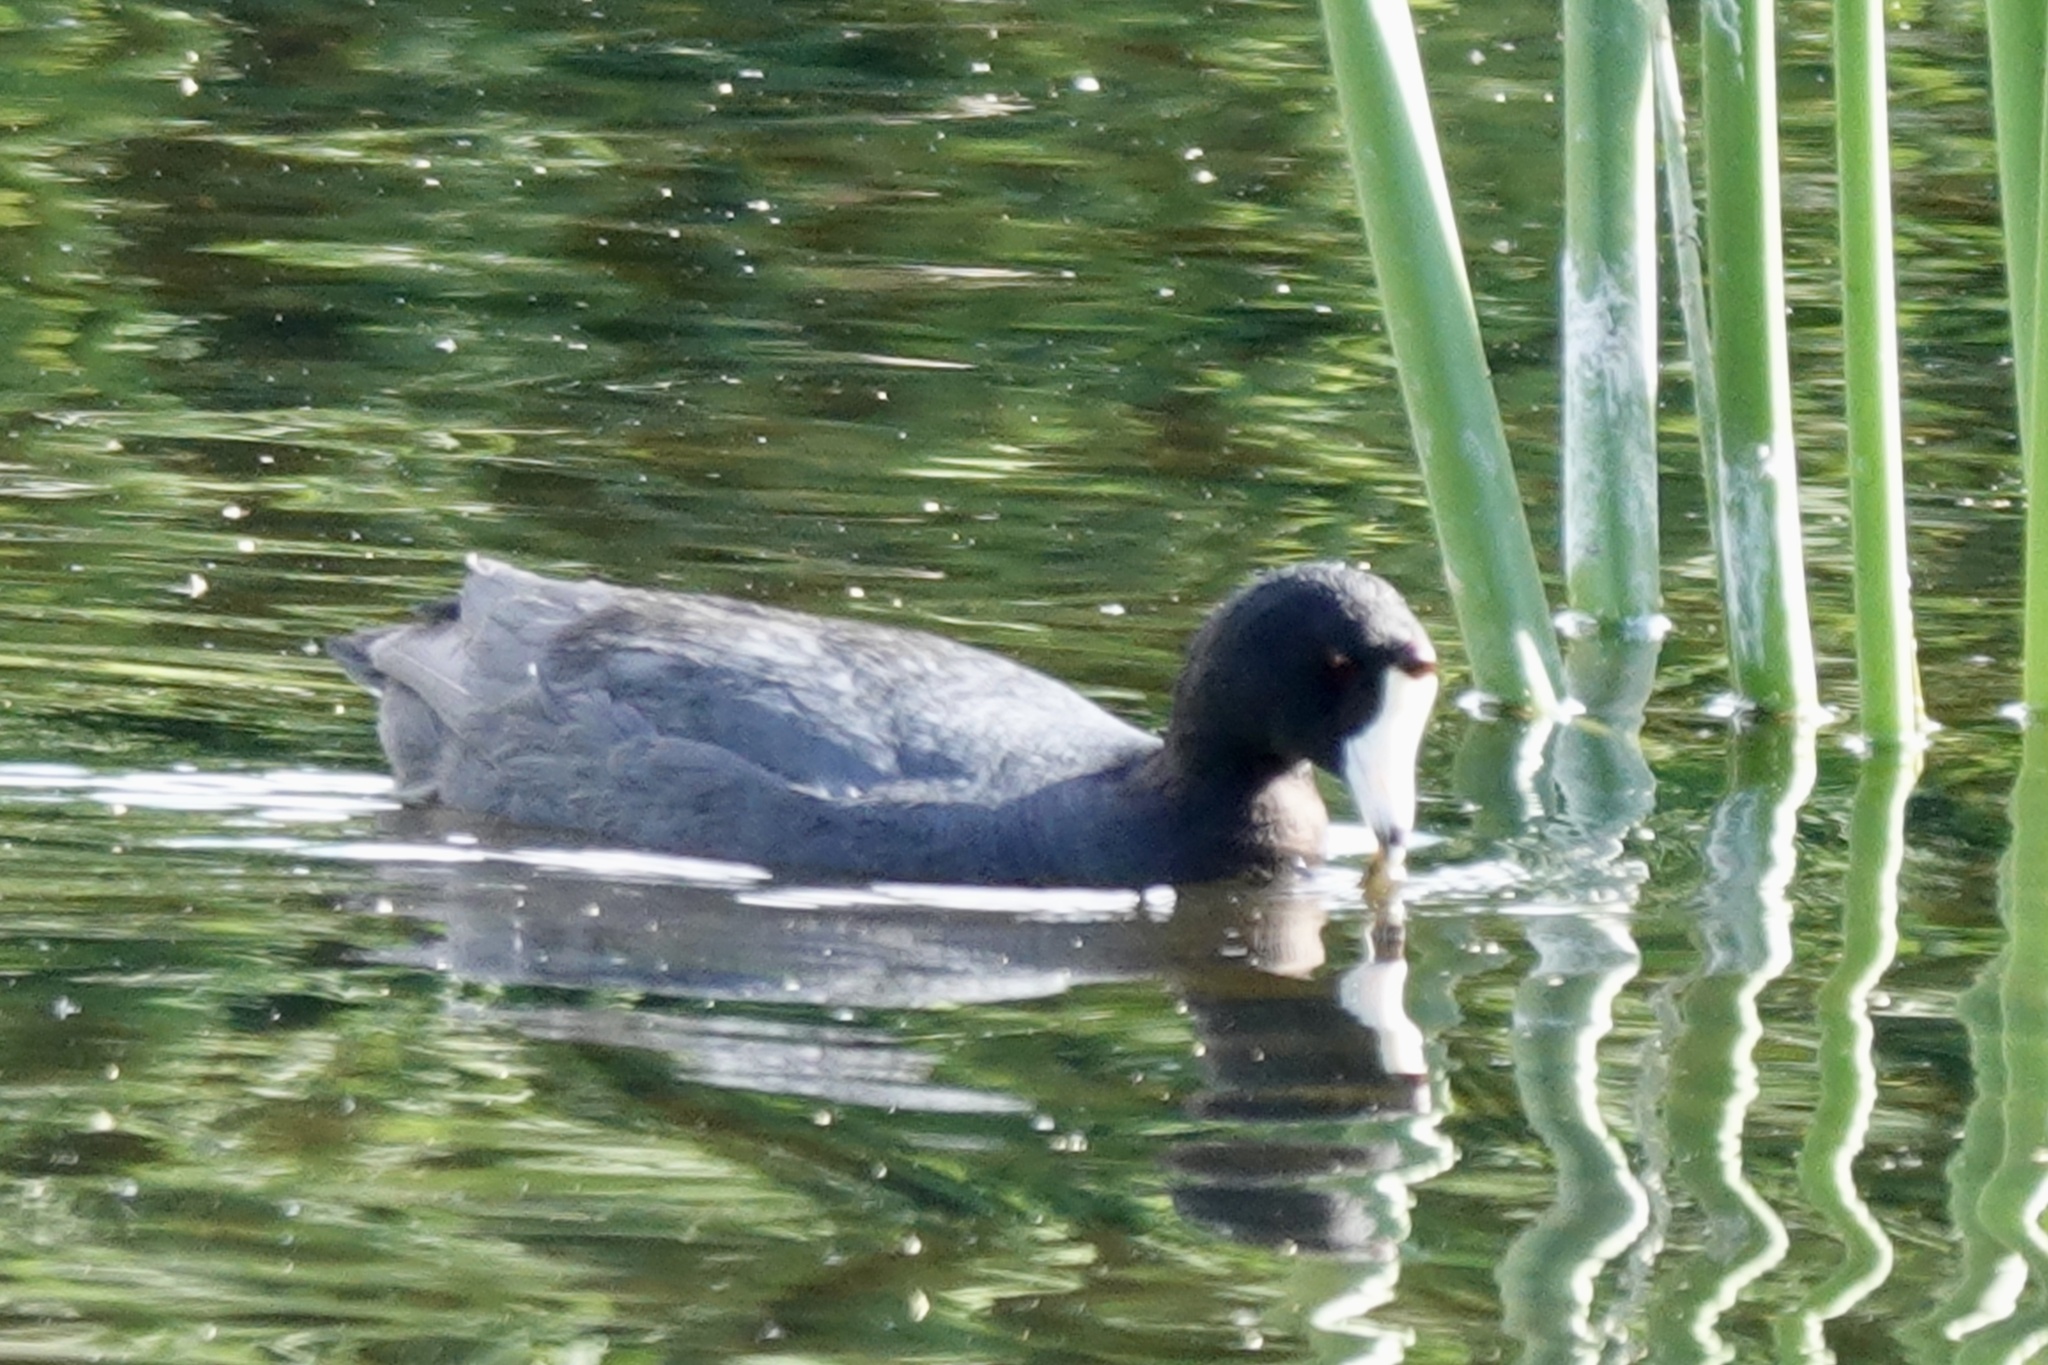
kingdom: Animalia
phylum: Chordata
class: Aves
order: Gruiformes
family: Rallidae
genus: Fulica
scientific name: Fulica americana
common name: American coot
